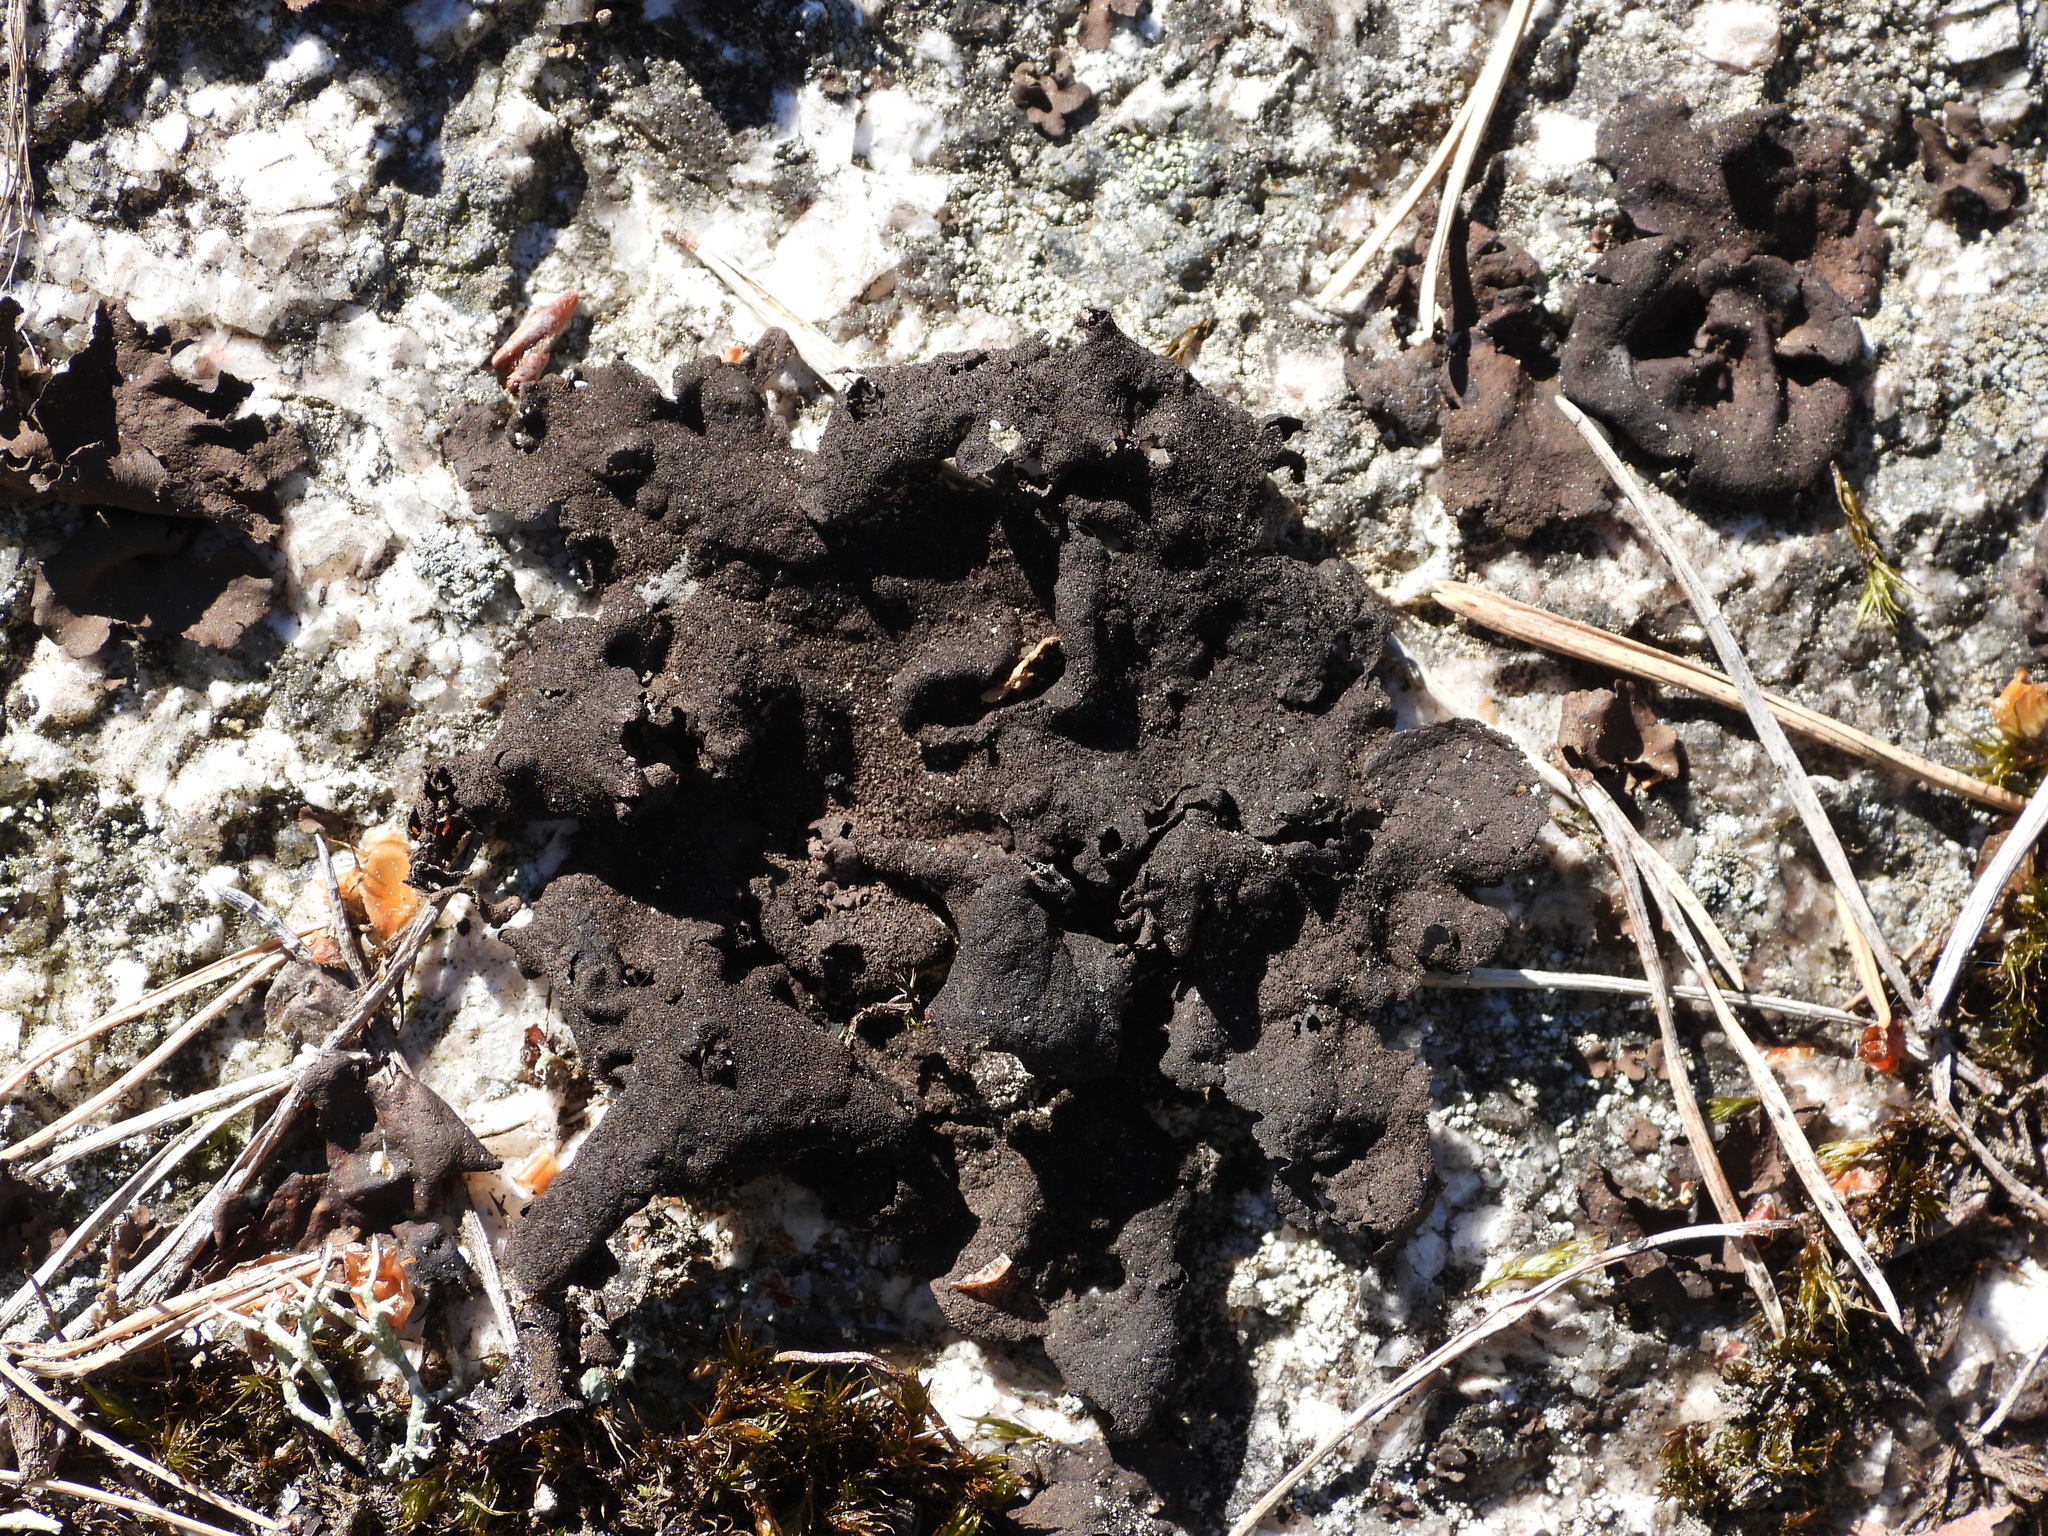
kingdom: Fungi
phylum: Ascomycota
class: Lecanoromycetes
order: Umbilicariales
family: Umbilicariaceae
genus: Umbilicaria
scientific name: Umbilicaria deusta
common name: Peppered rock tripe
